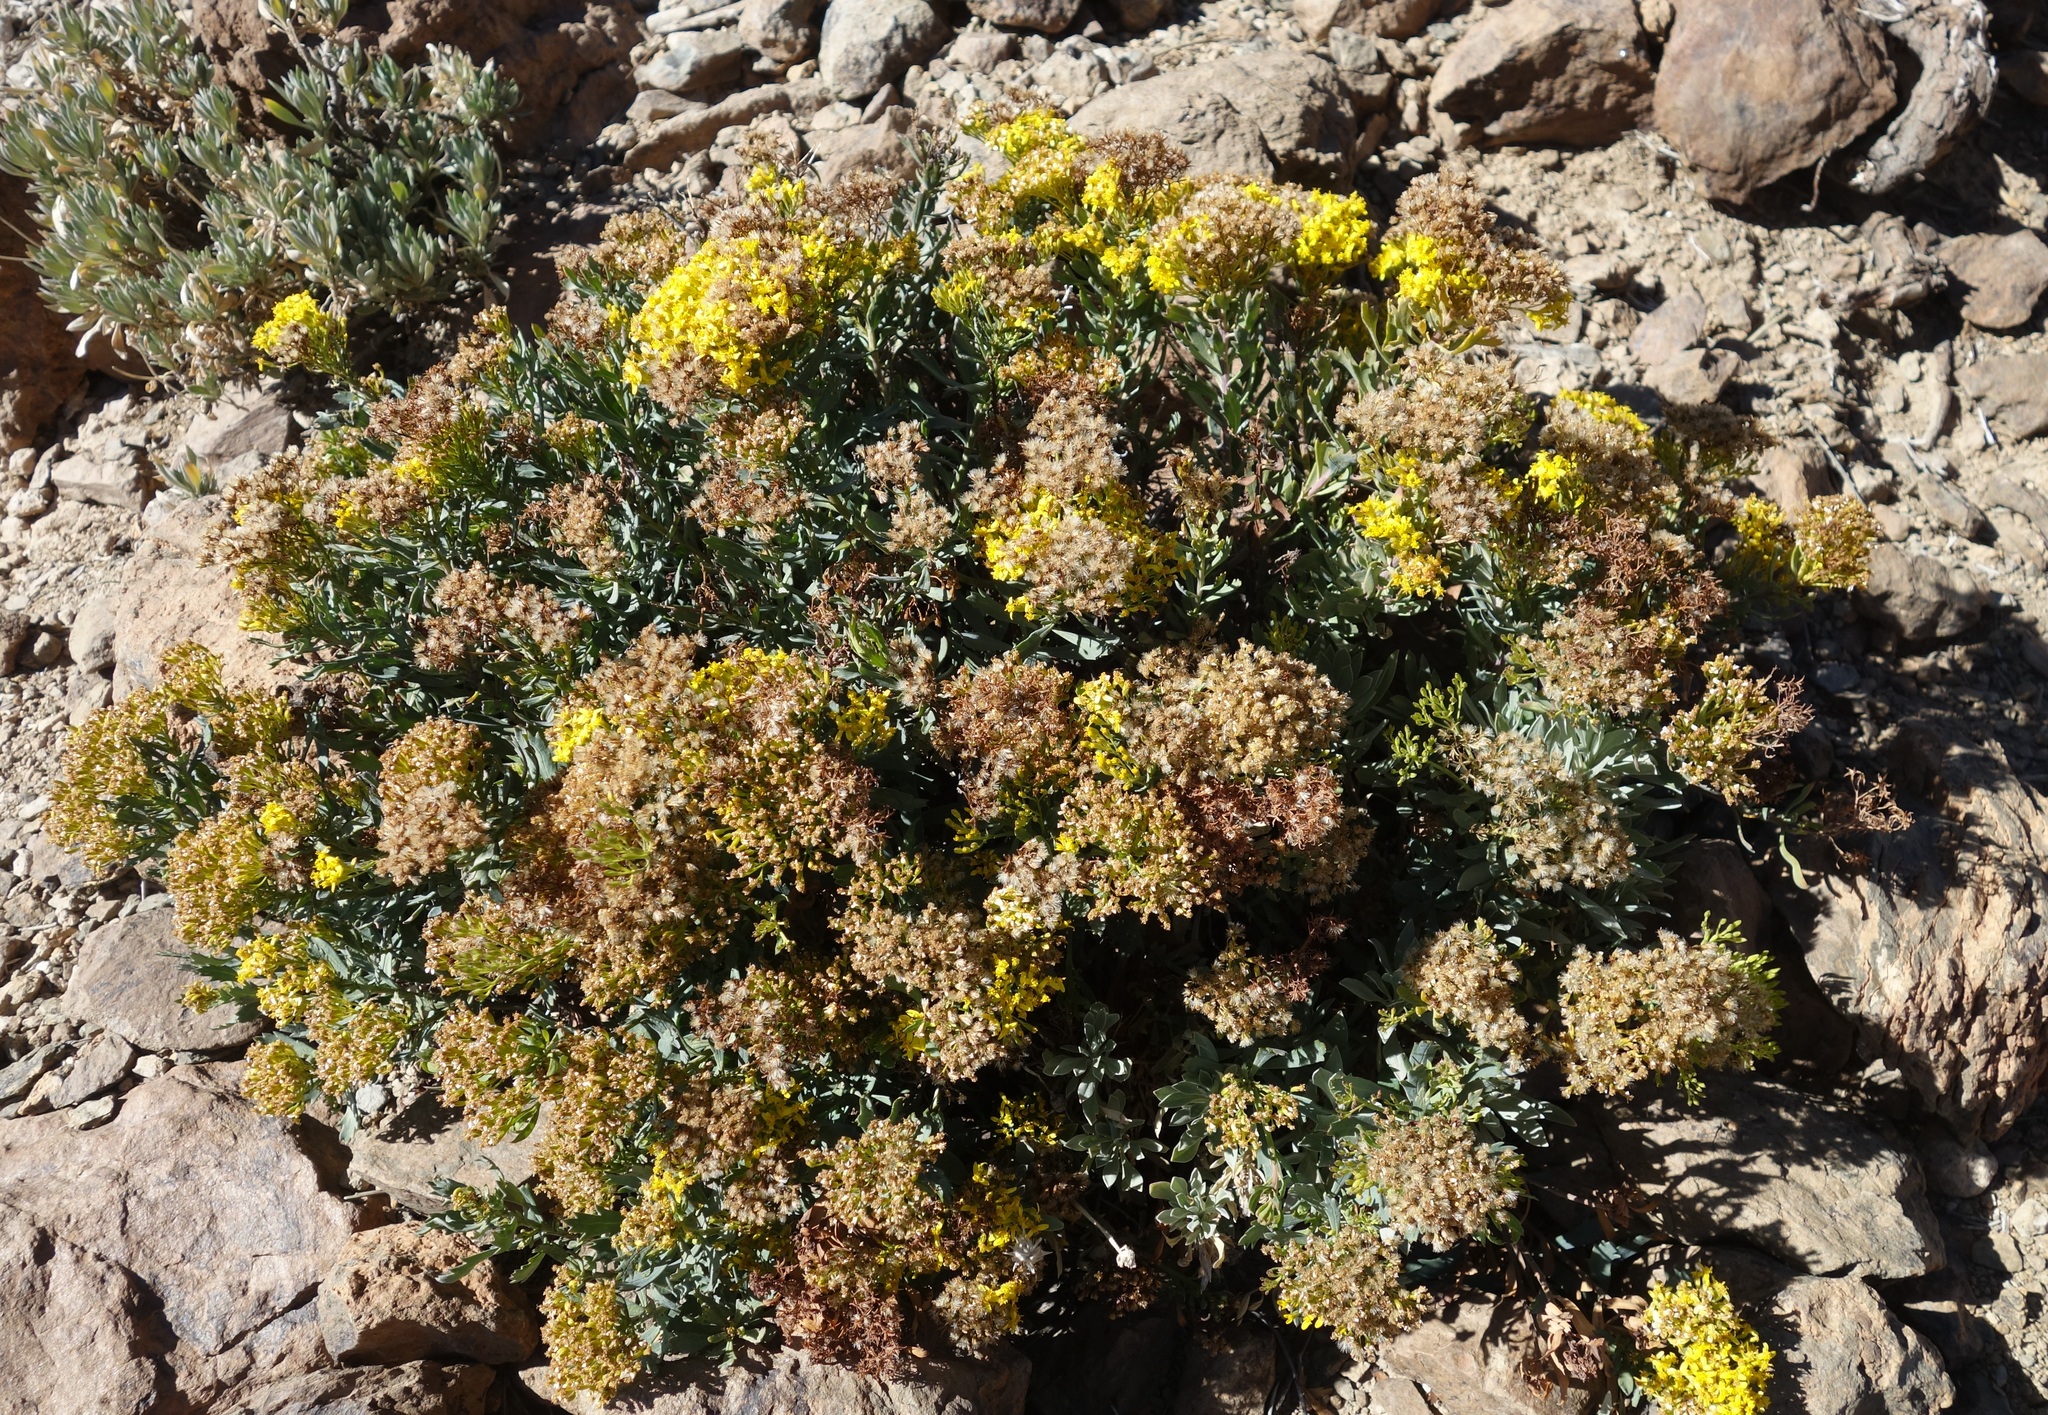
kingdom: Plantae
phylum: Tracheophyta
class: Magnoliopsida
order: Asterales
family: Asteraceae
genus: Bethencourtia
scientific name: Bethencourtia palmensis
